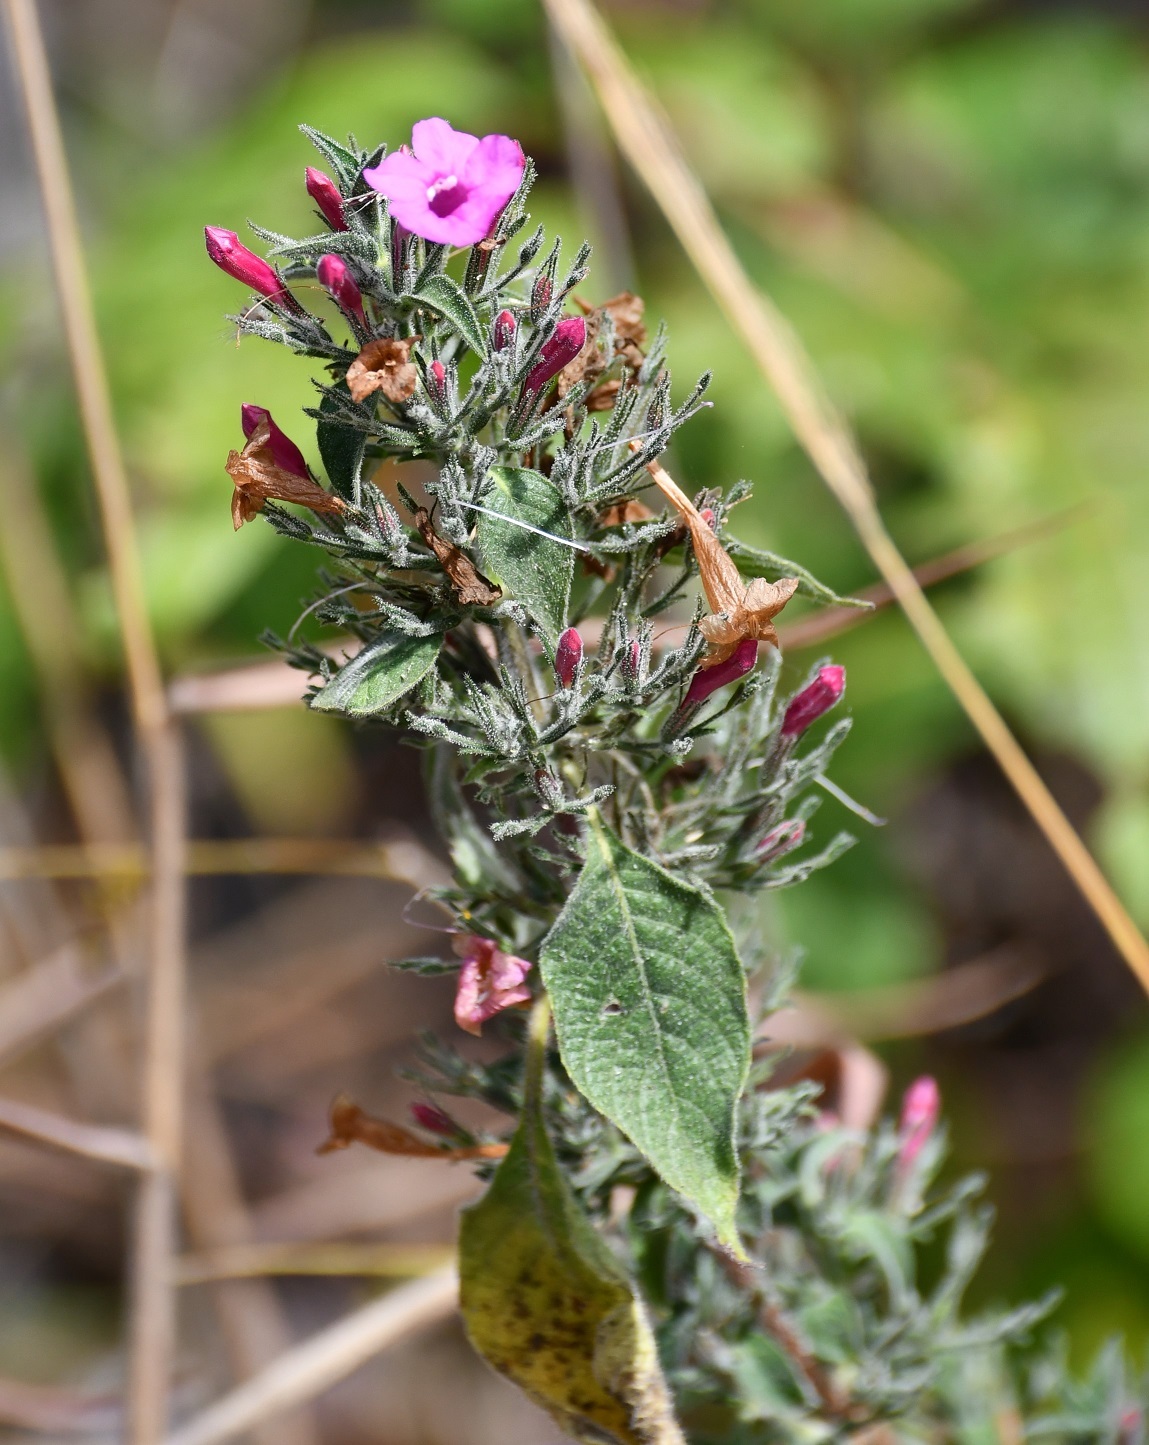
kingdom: Plantae
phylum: Tracheophyta
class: Magnoliopsida
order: Lamiales
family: Acanthaceae
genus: Ruellia
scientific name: Ruellia inundata
